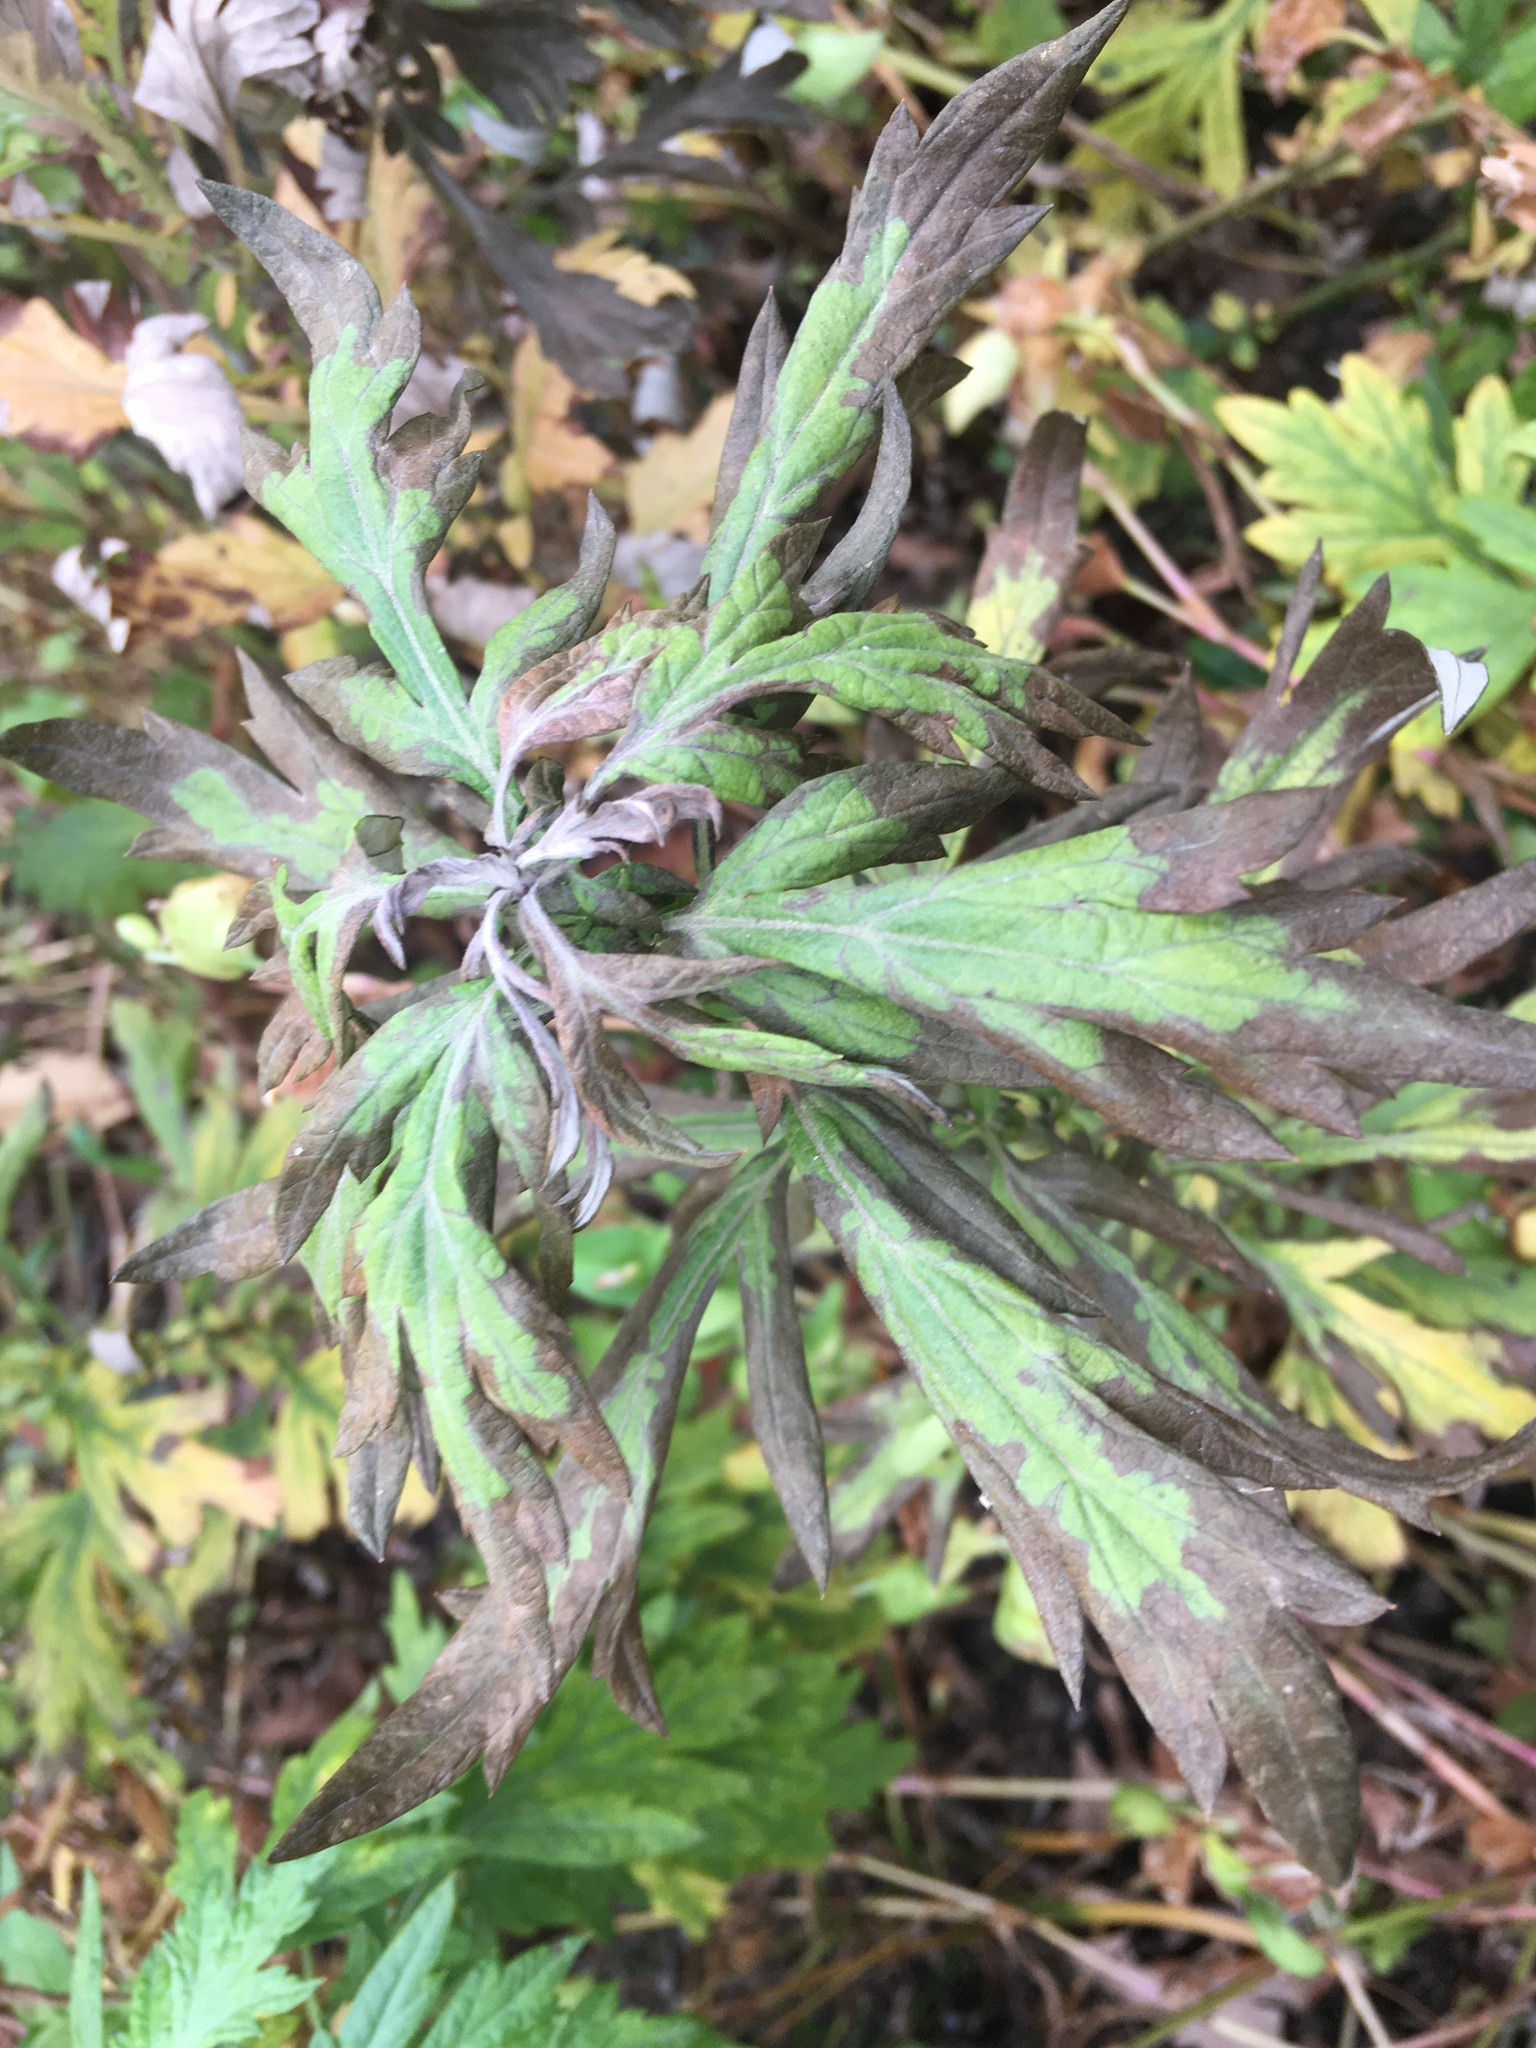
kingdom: Plantae
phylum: Tracheophyta
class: Magnoliopsida
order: Asterales
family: Asteraceae
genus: Artemisia
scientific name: Artemisia vulgaris
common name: Mugwort
